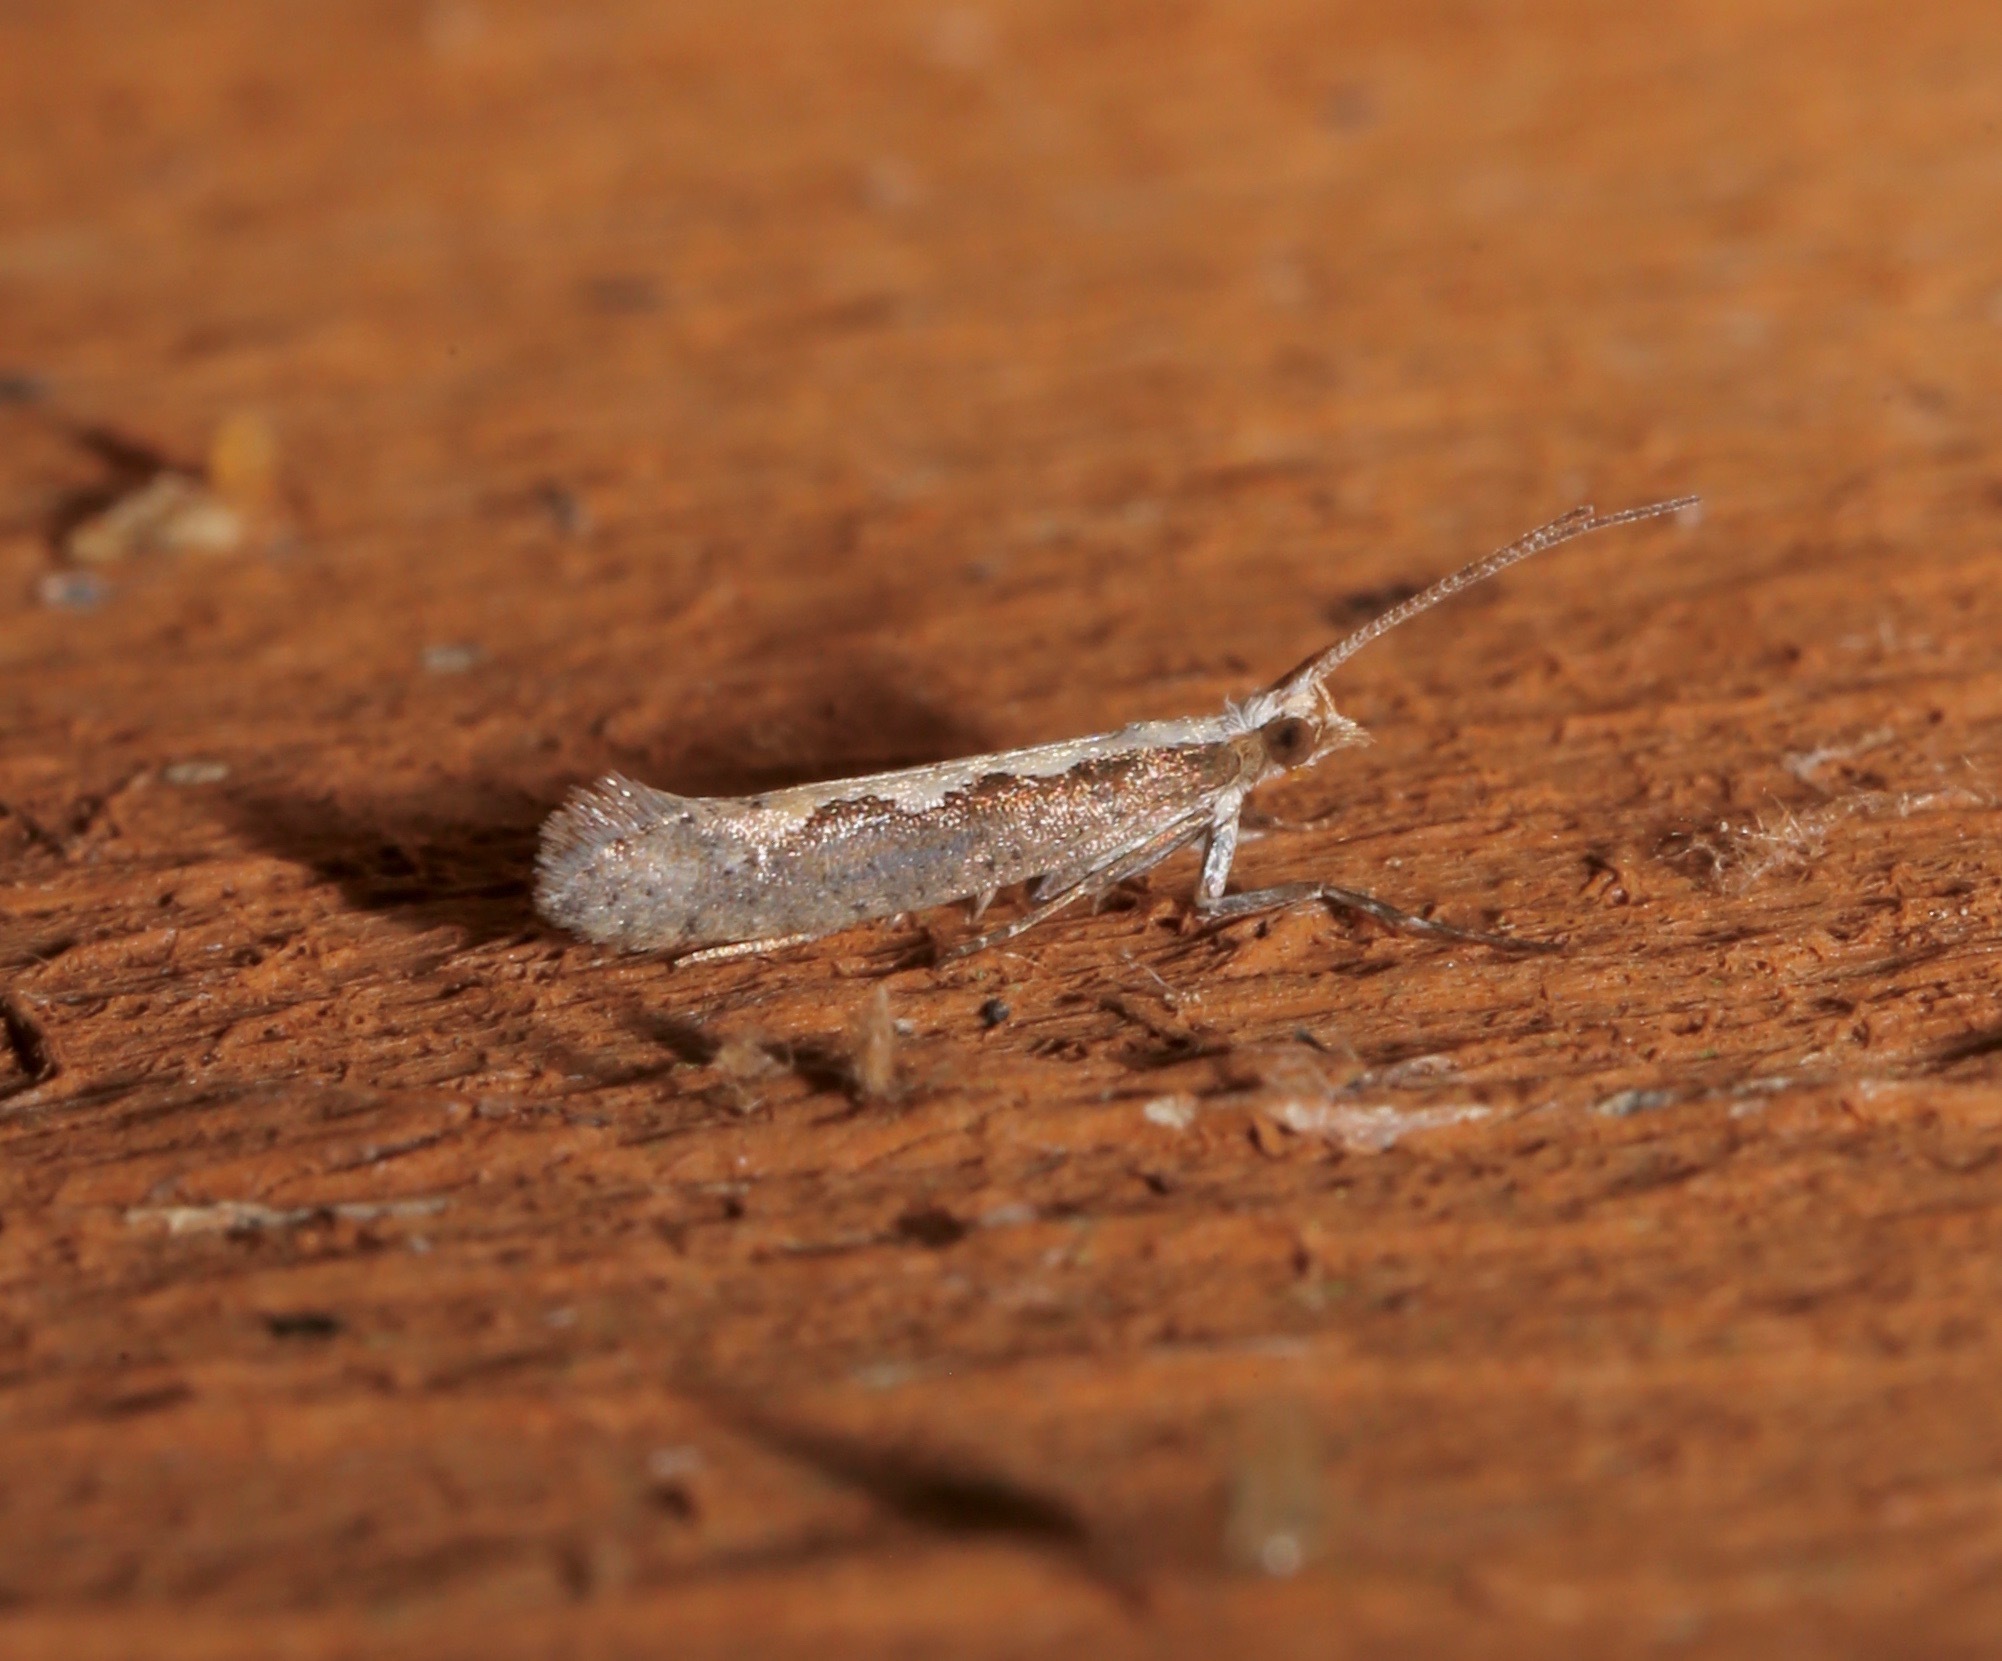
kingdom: Animalia
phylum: Arthropoda
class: Insecta
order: Lepidoptera
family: Plutellidae
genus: Plutella
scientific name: Plutella xylostella
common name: Diamond-back moth
